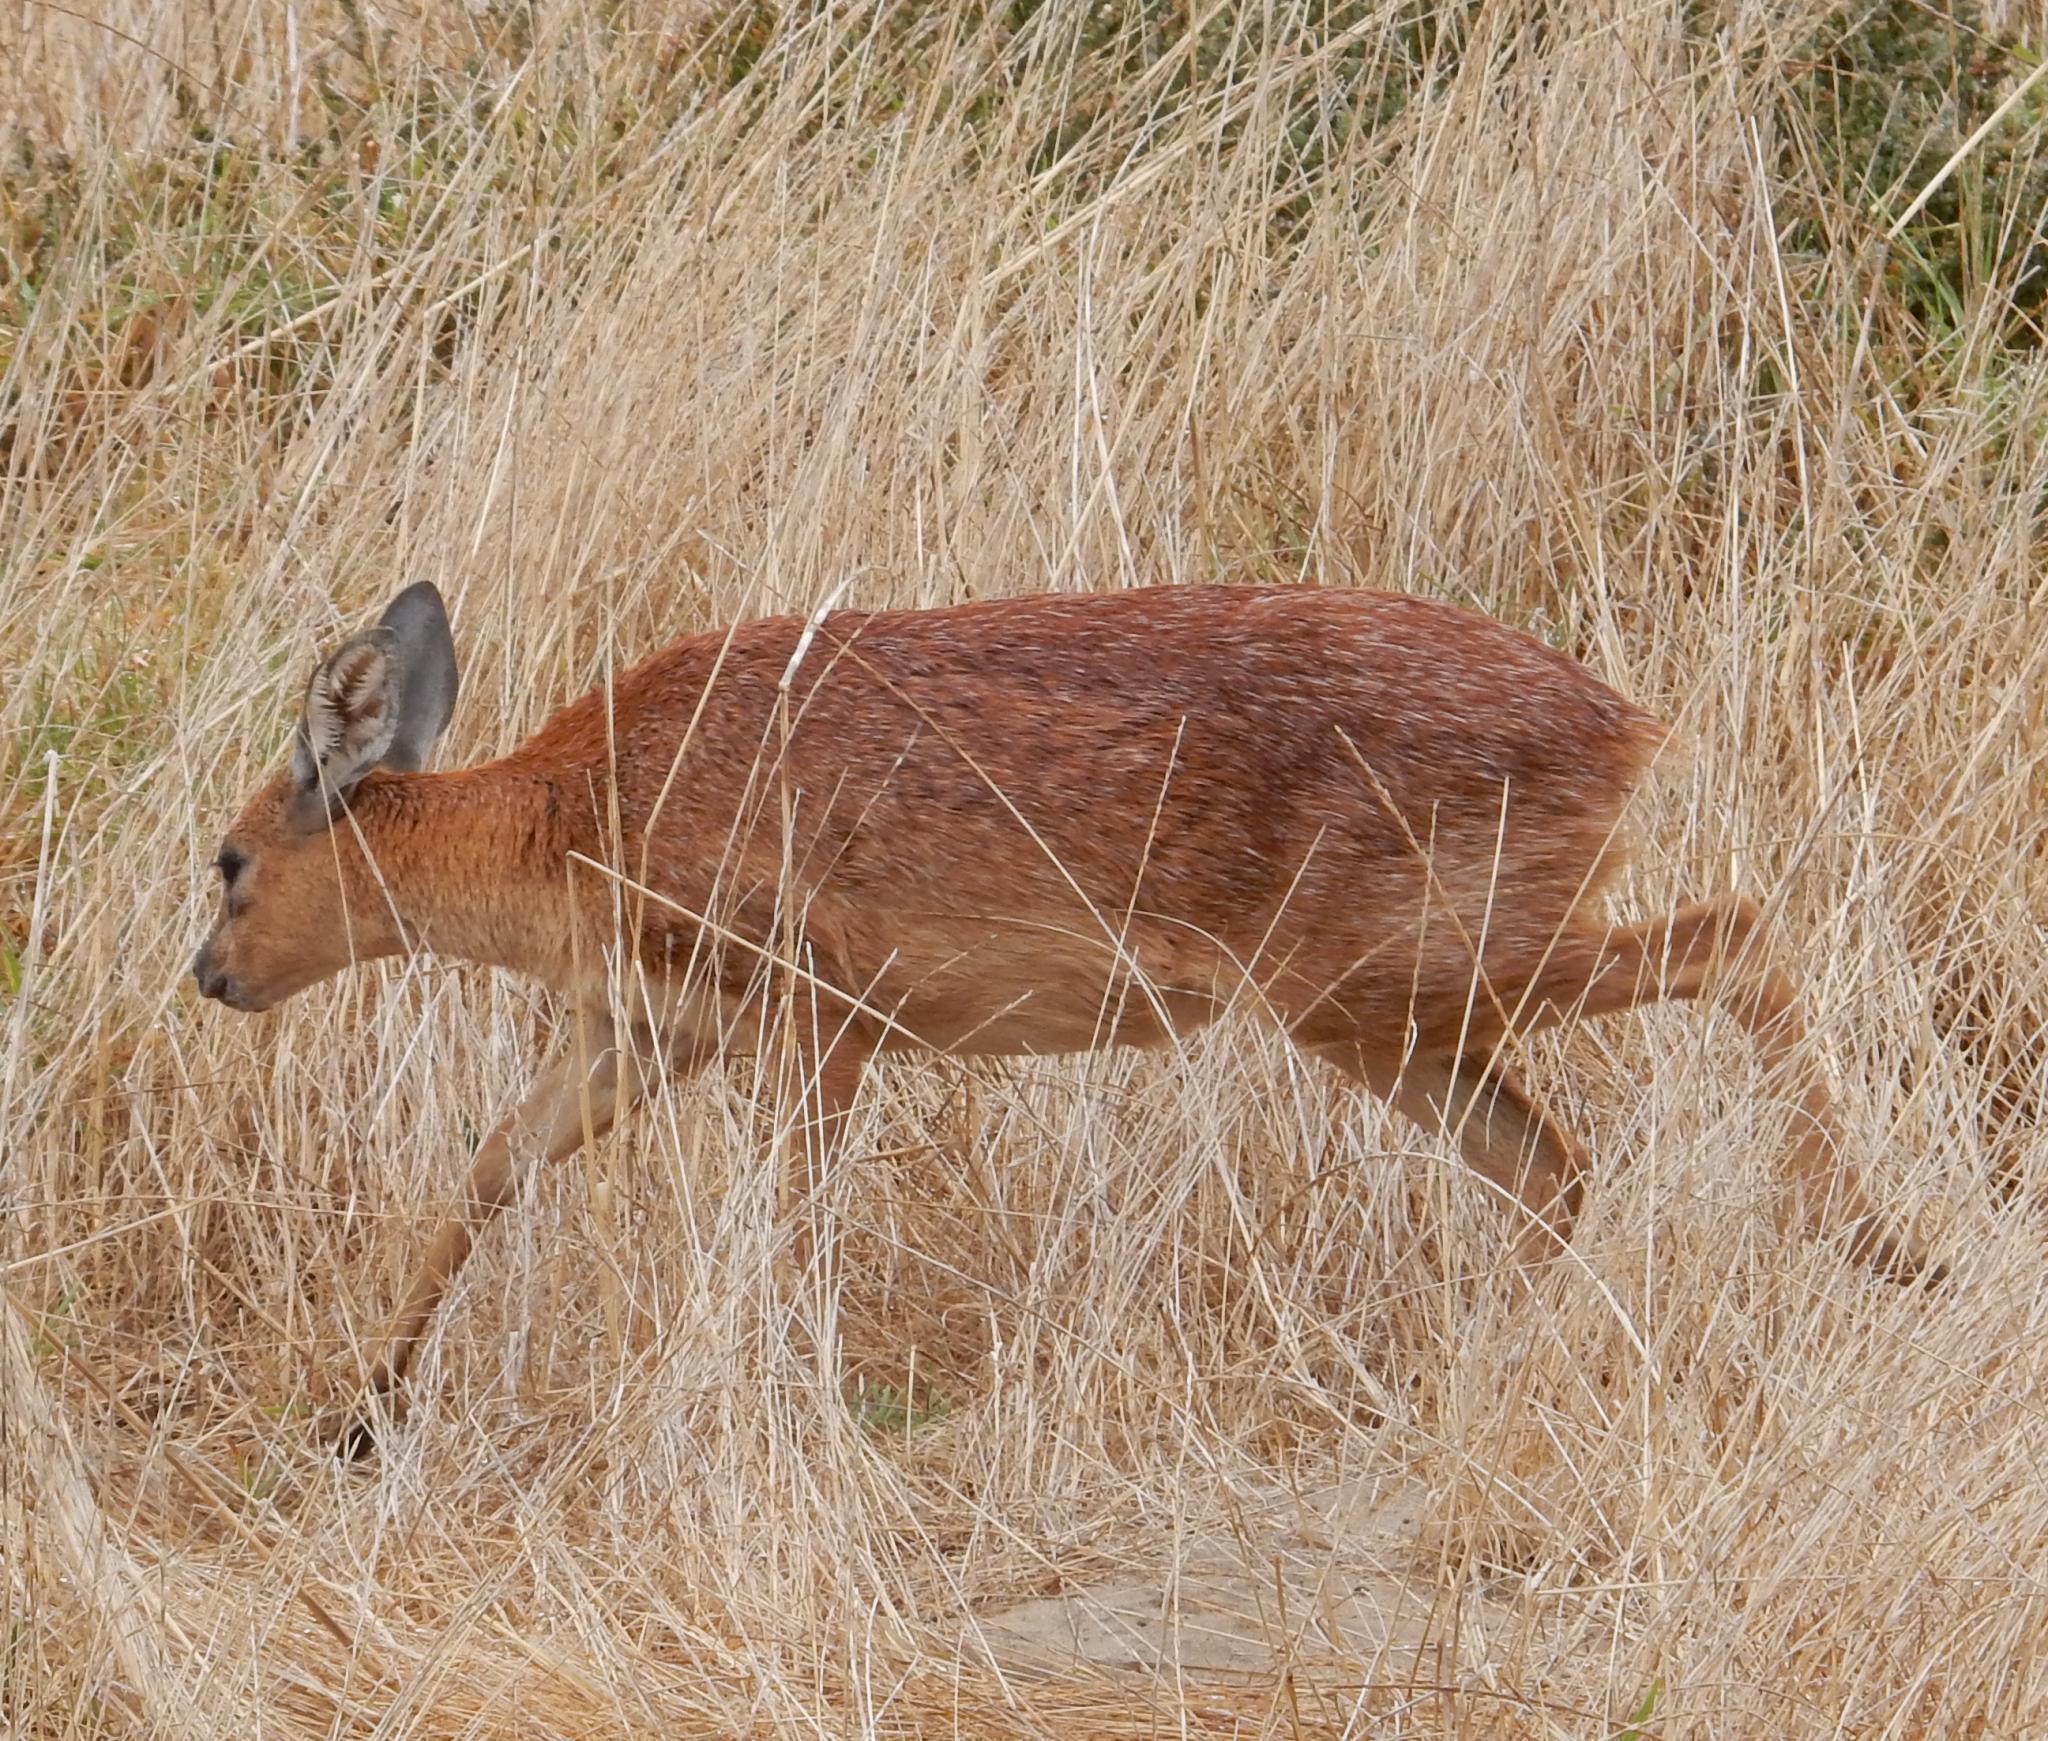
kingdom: Animalia
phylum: Chordata
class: Mammalia
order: Artiodactyla
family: Bovidae
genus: Raphicerus
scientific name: Raphicerus melanotis
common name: Cape grysbok
